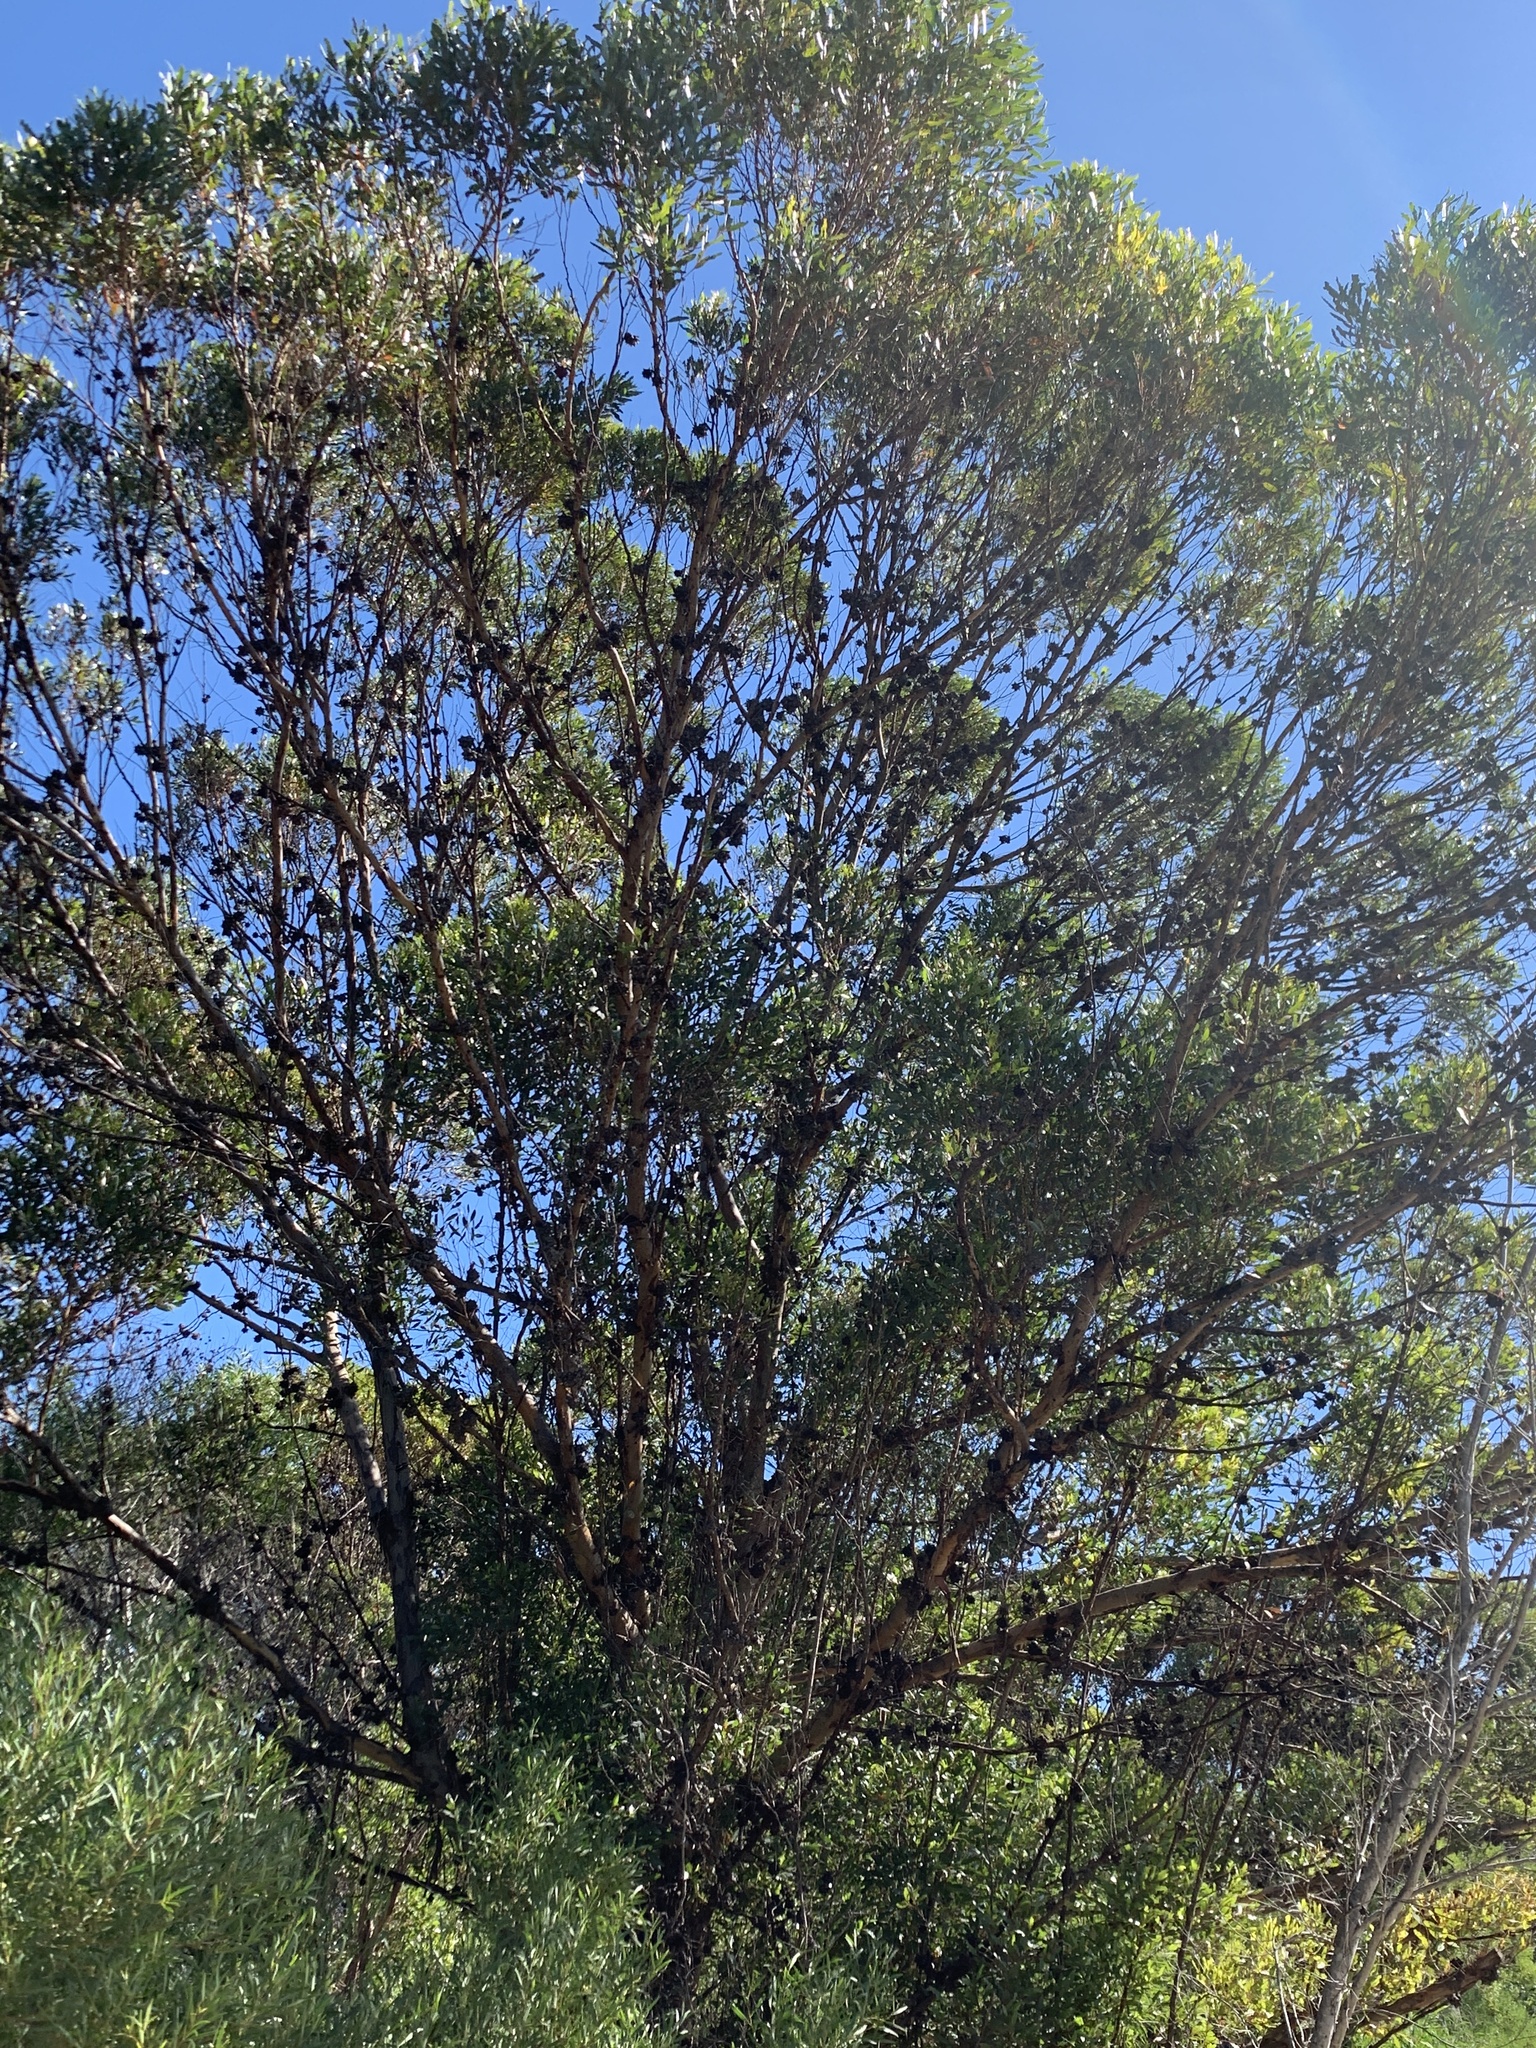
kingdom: Plantae
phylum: Tracheophyta
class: Magnoliopsida
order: Myrtales
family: Myrtaceae
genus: Eucalyptus
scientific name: Eucalyptus conferruminata
